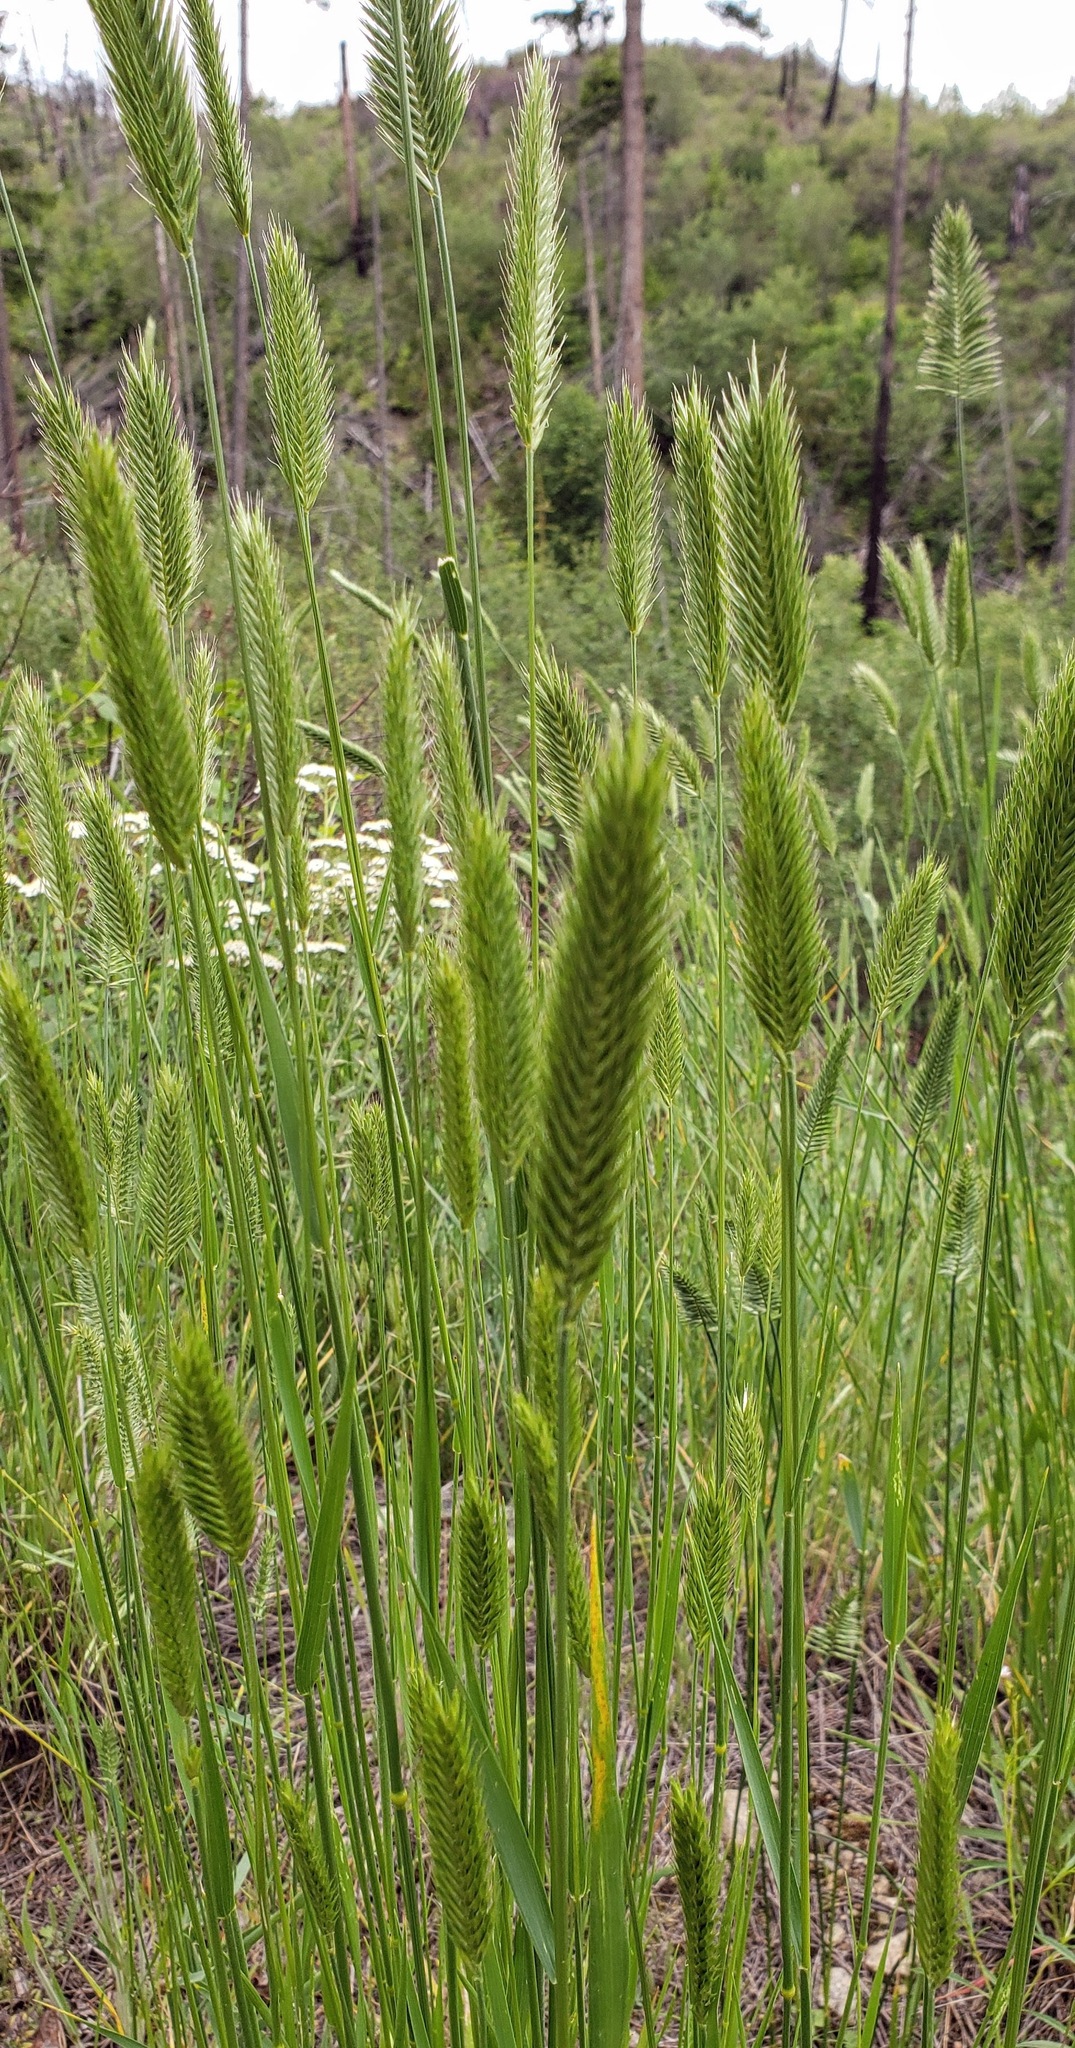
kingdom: Plantae
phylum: Tracheophyta
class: Liliopsida
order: Poales
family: Poaceae
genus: Agropyron
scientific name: Agropyron cristatum
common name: Crested wheatgrass
